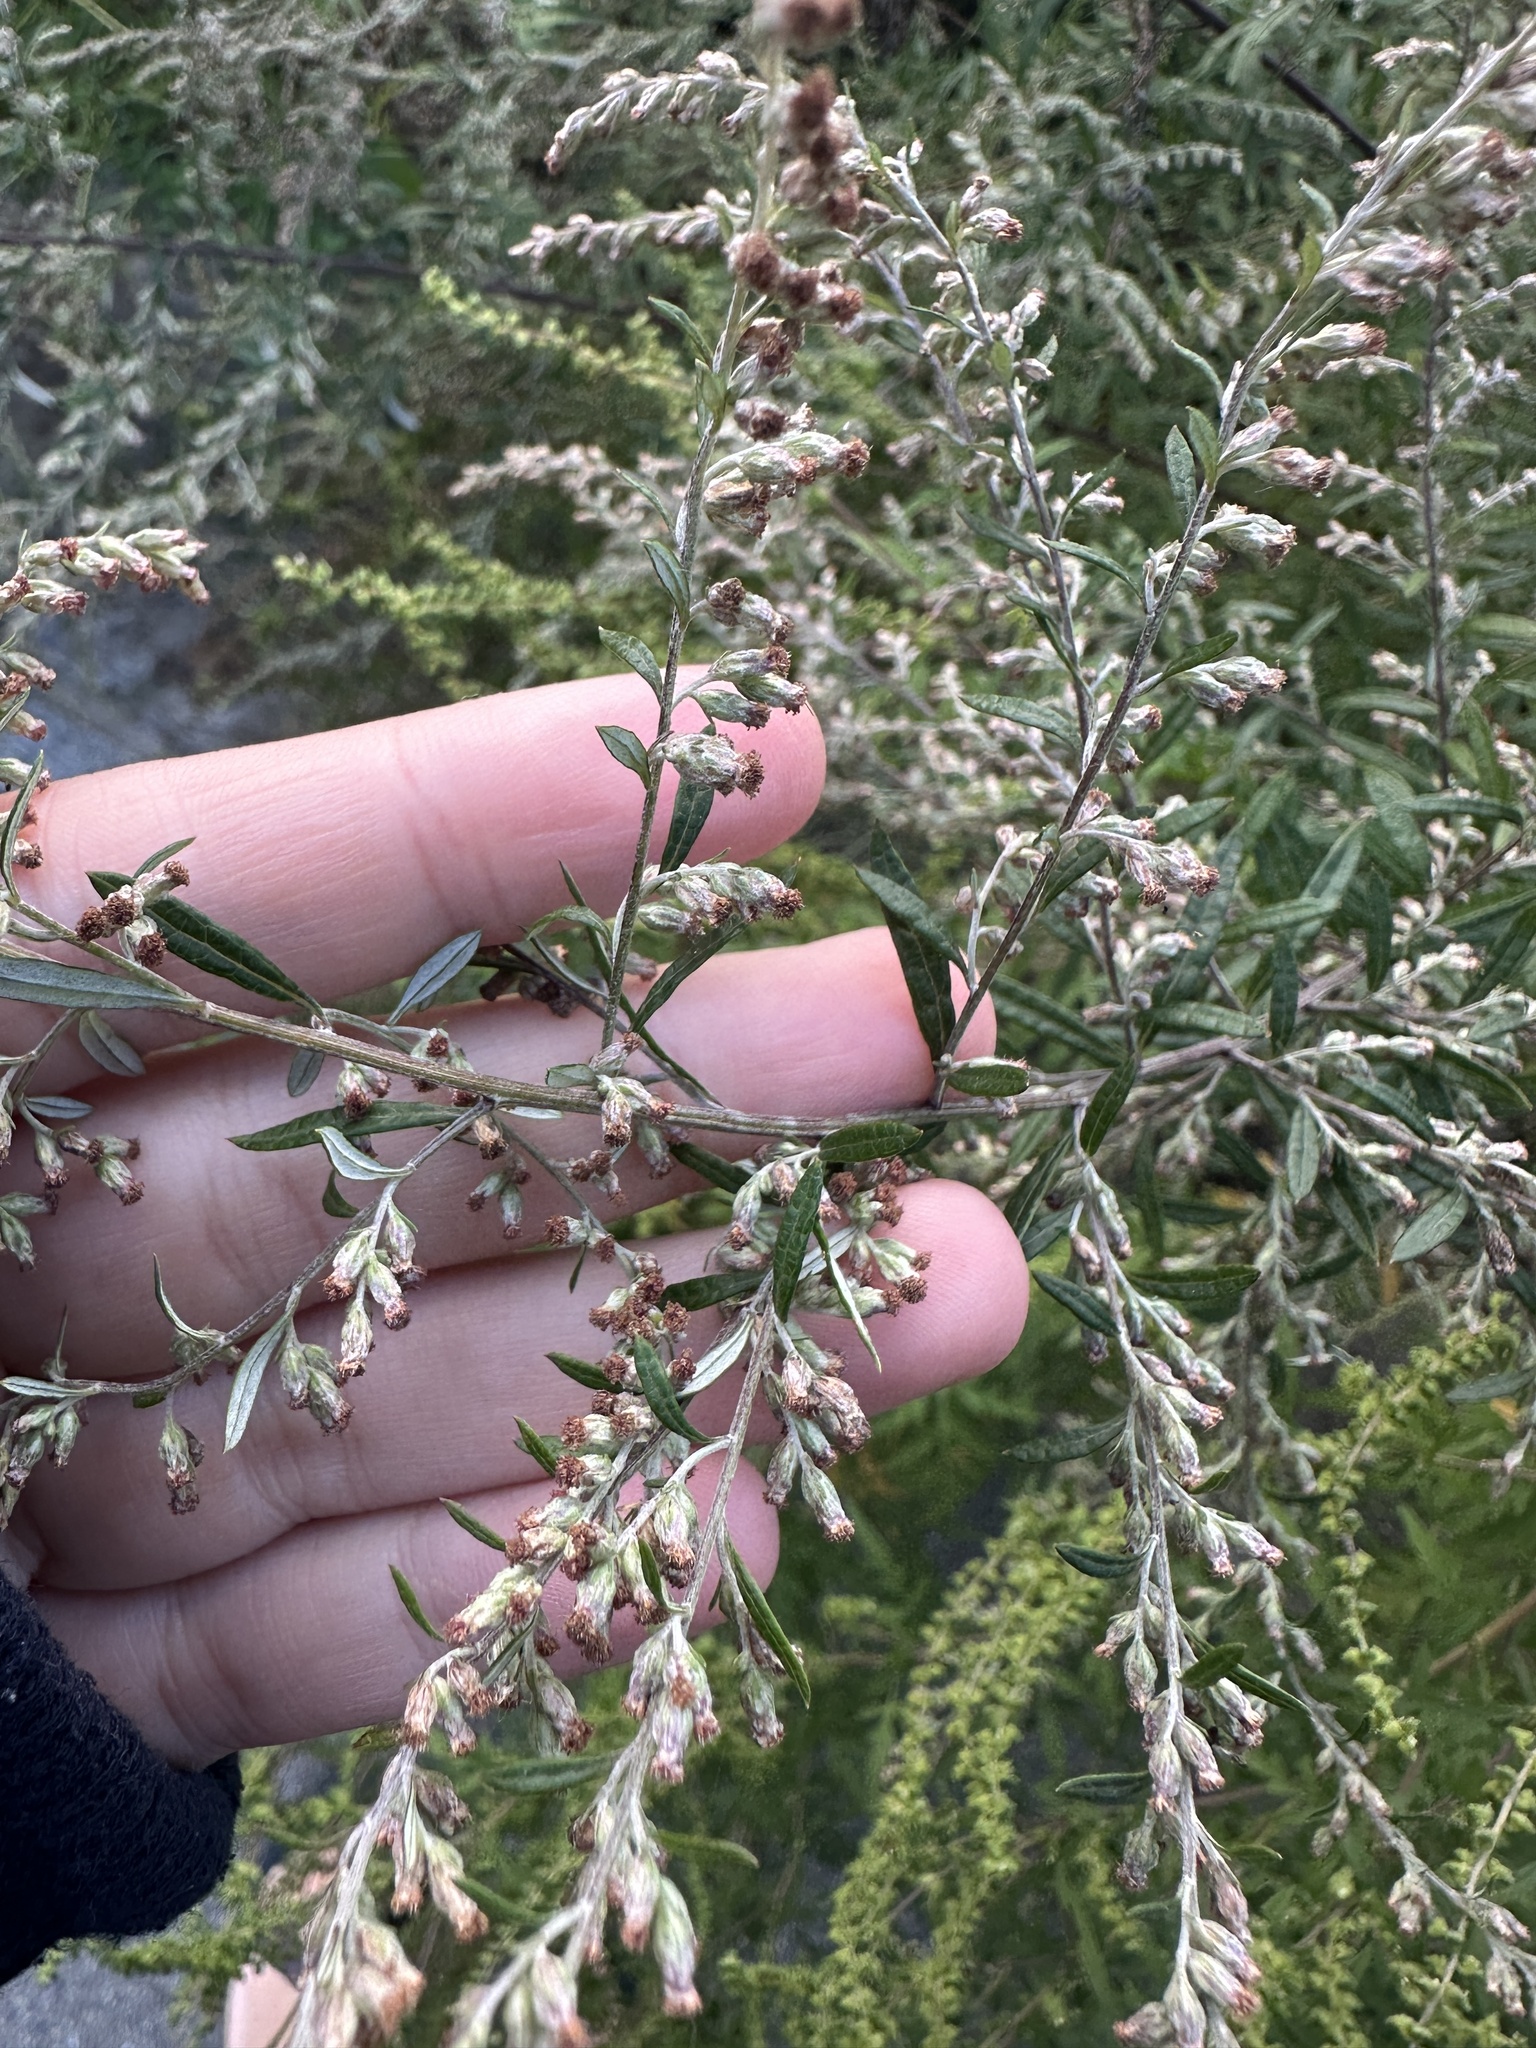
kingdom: Plantae
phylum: Tracheophyta
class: Magnoliopsida
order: Asterales
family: Asteraceae
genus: Artemisia
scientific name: Artemisia vulgaris
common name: Mugwort
